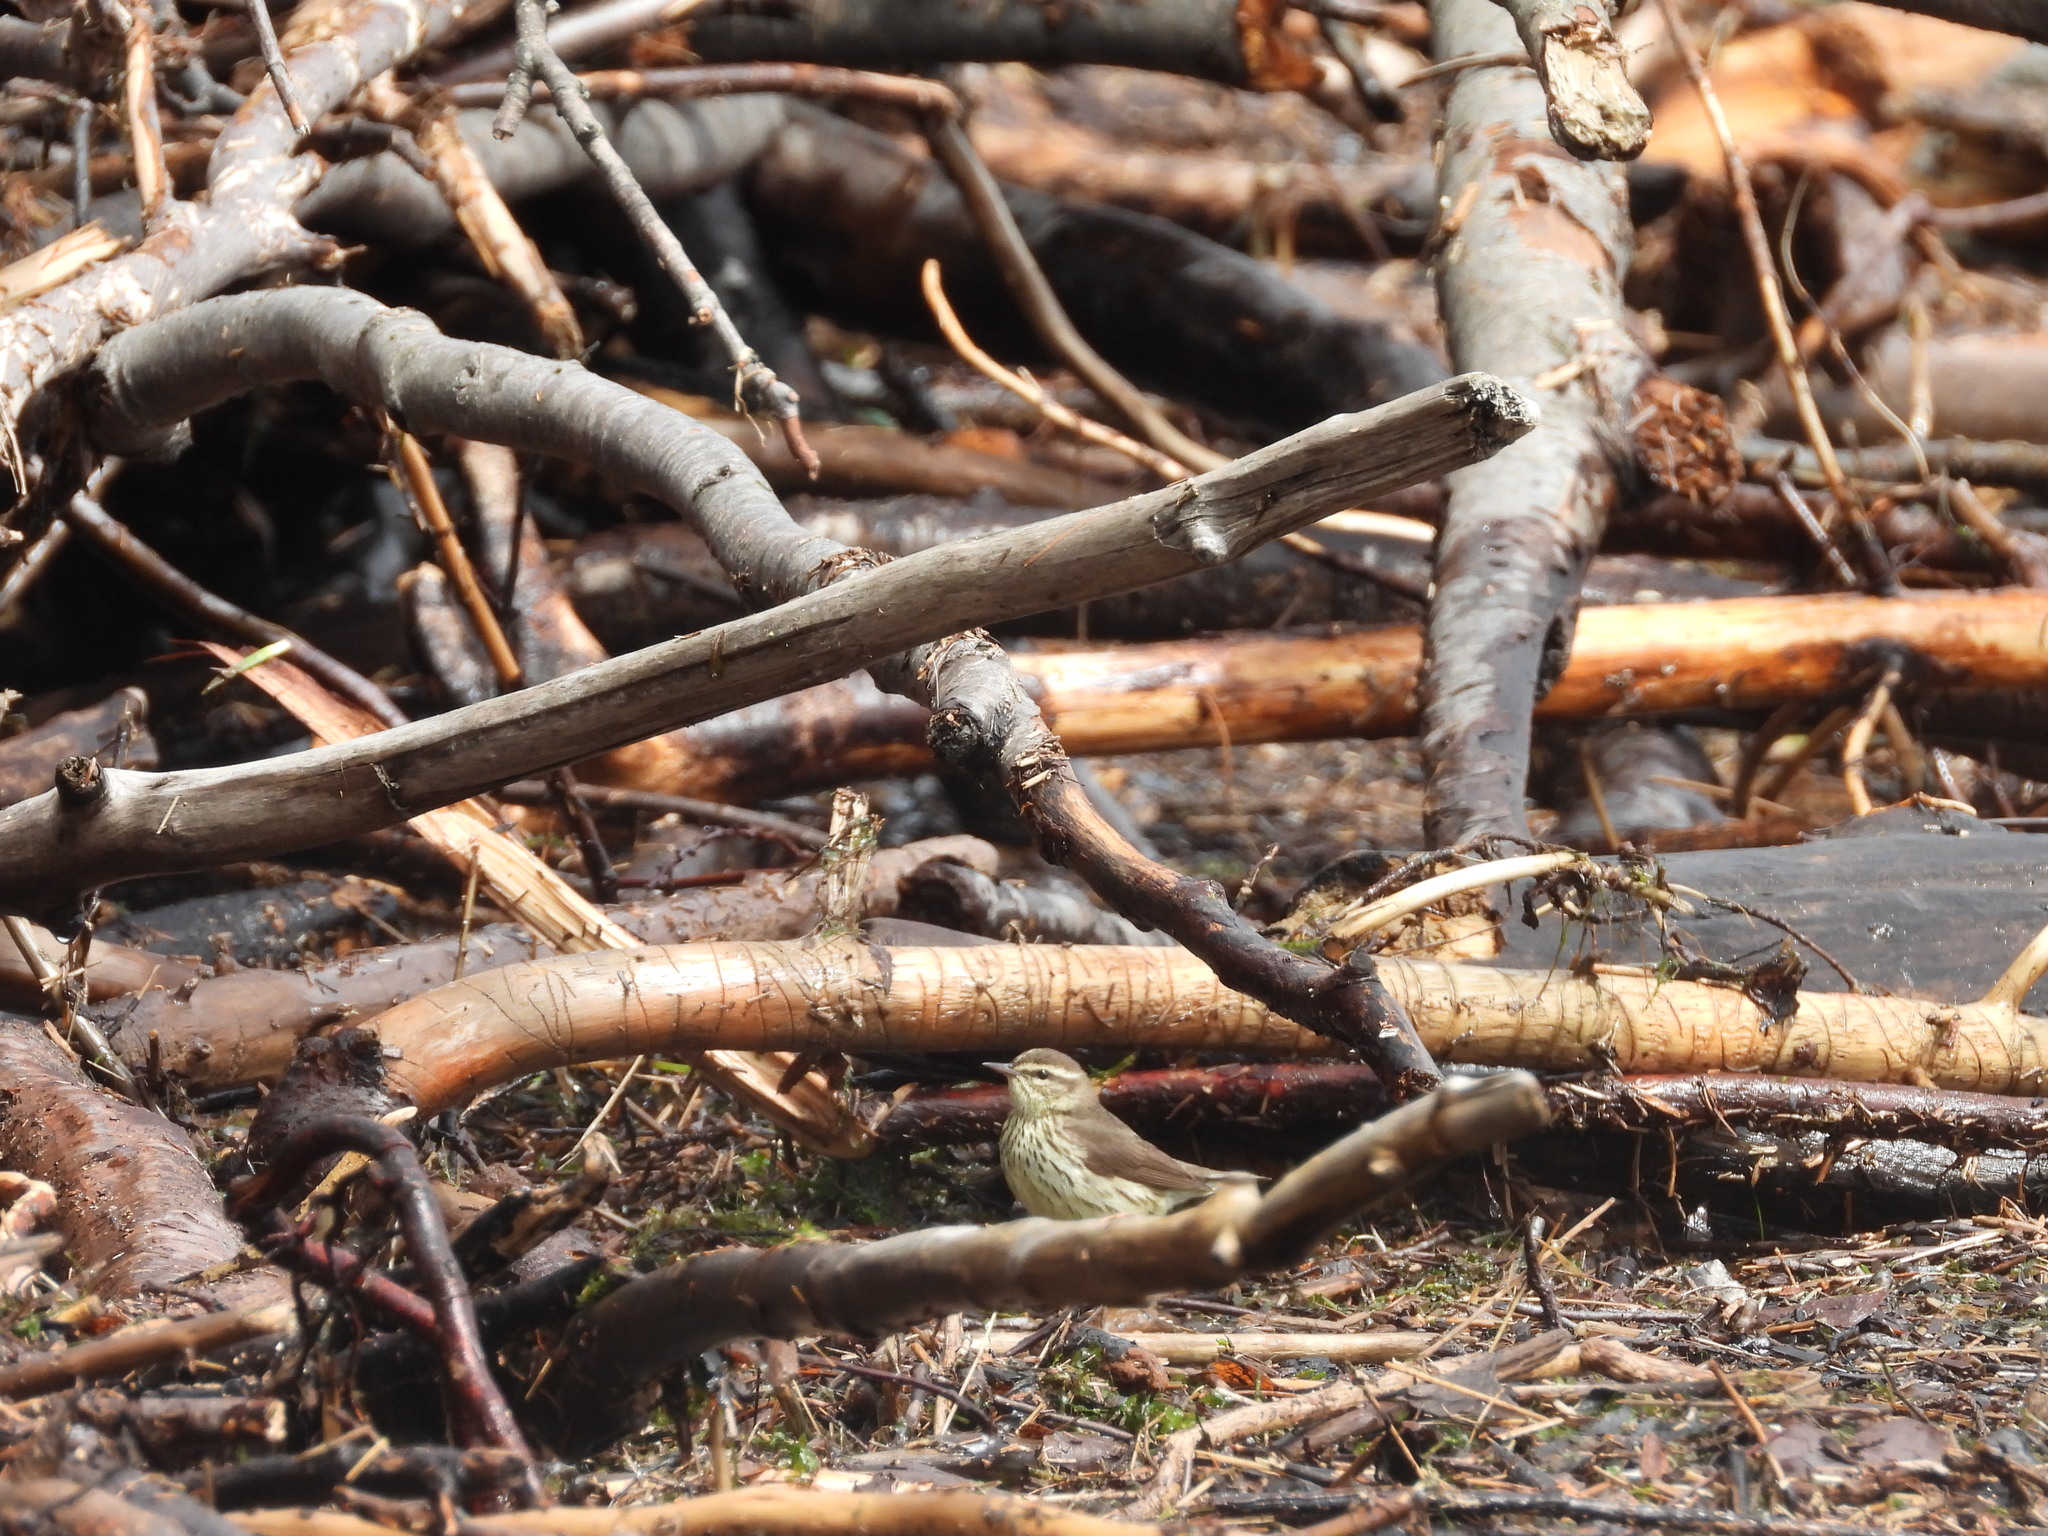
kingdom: Animalia
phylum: Chordata
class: Aves
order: Passeriformes
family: Parulidae
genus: Parkesia
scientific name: Parkesia noveboracensis
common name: Northern waterthrush
